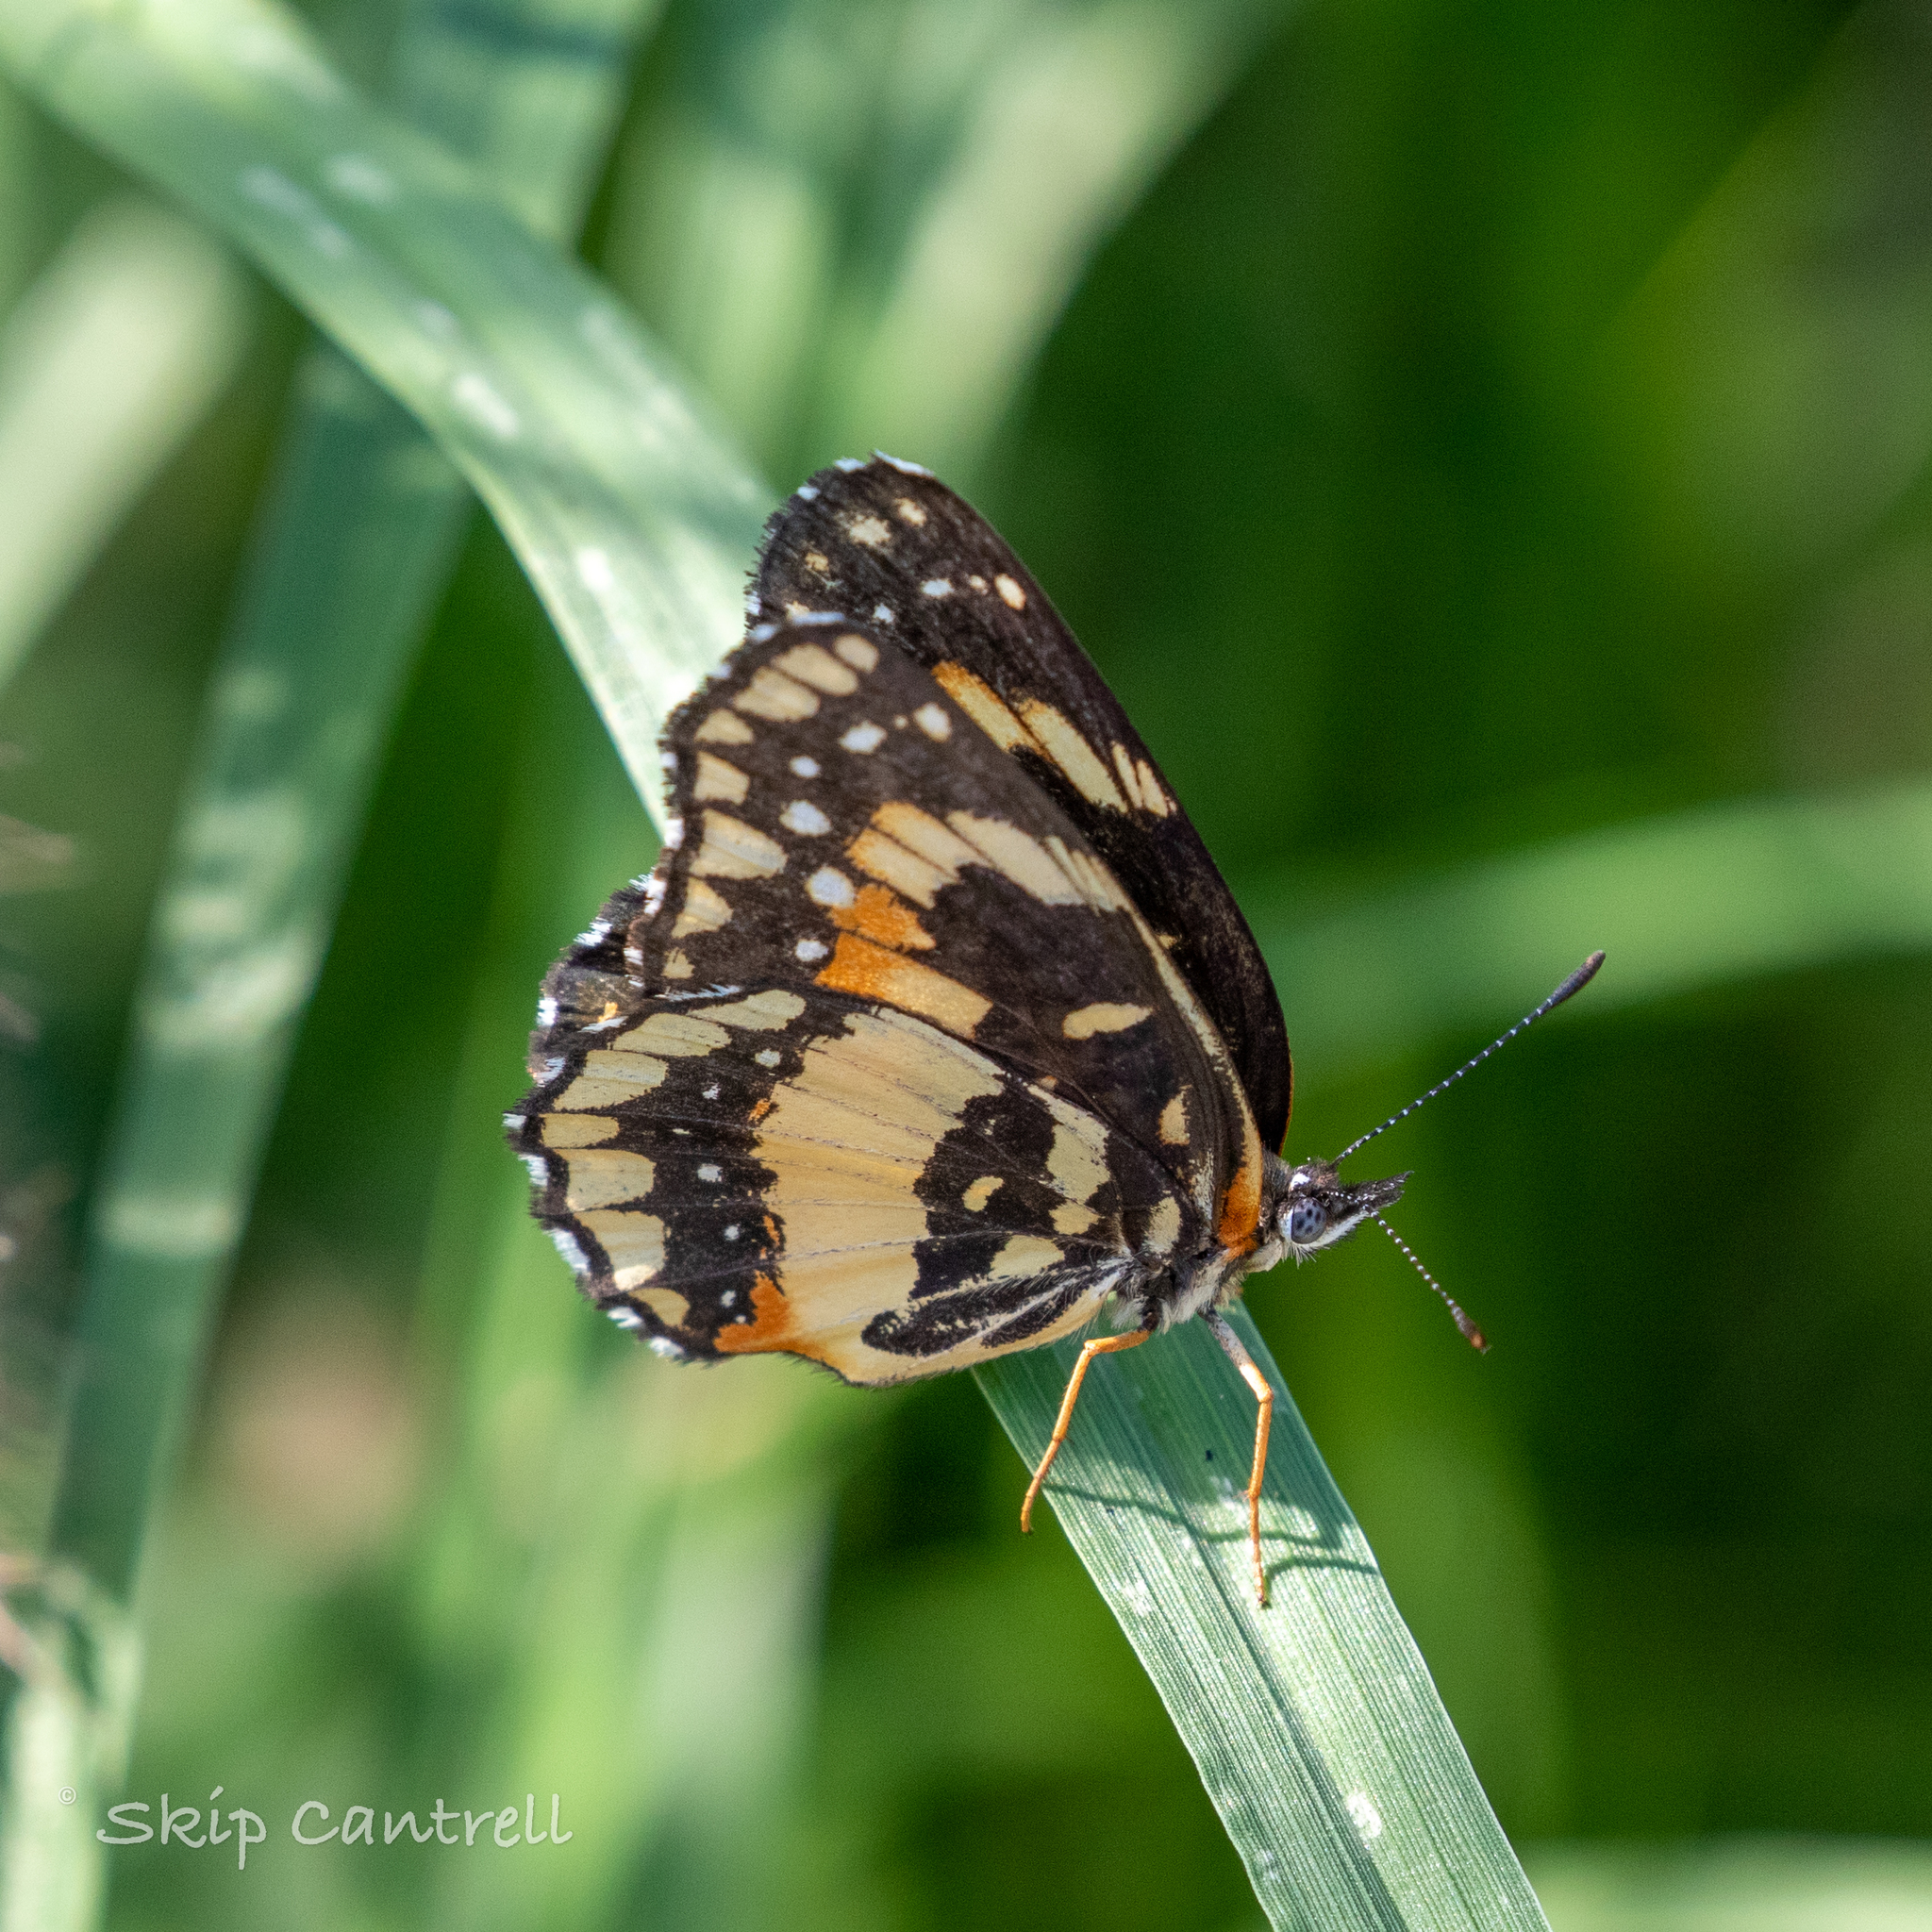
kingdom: Animalia
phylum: Arthropoda
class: Insecta
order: Lepidoptera
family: Nymphalidae
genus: Chlosyne
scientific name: Chlosyne lacinia
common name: Bordered patch
